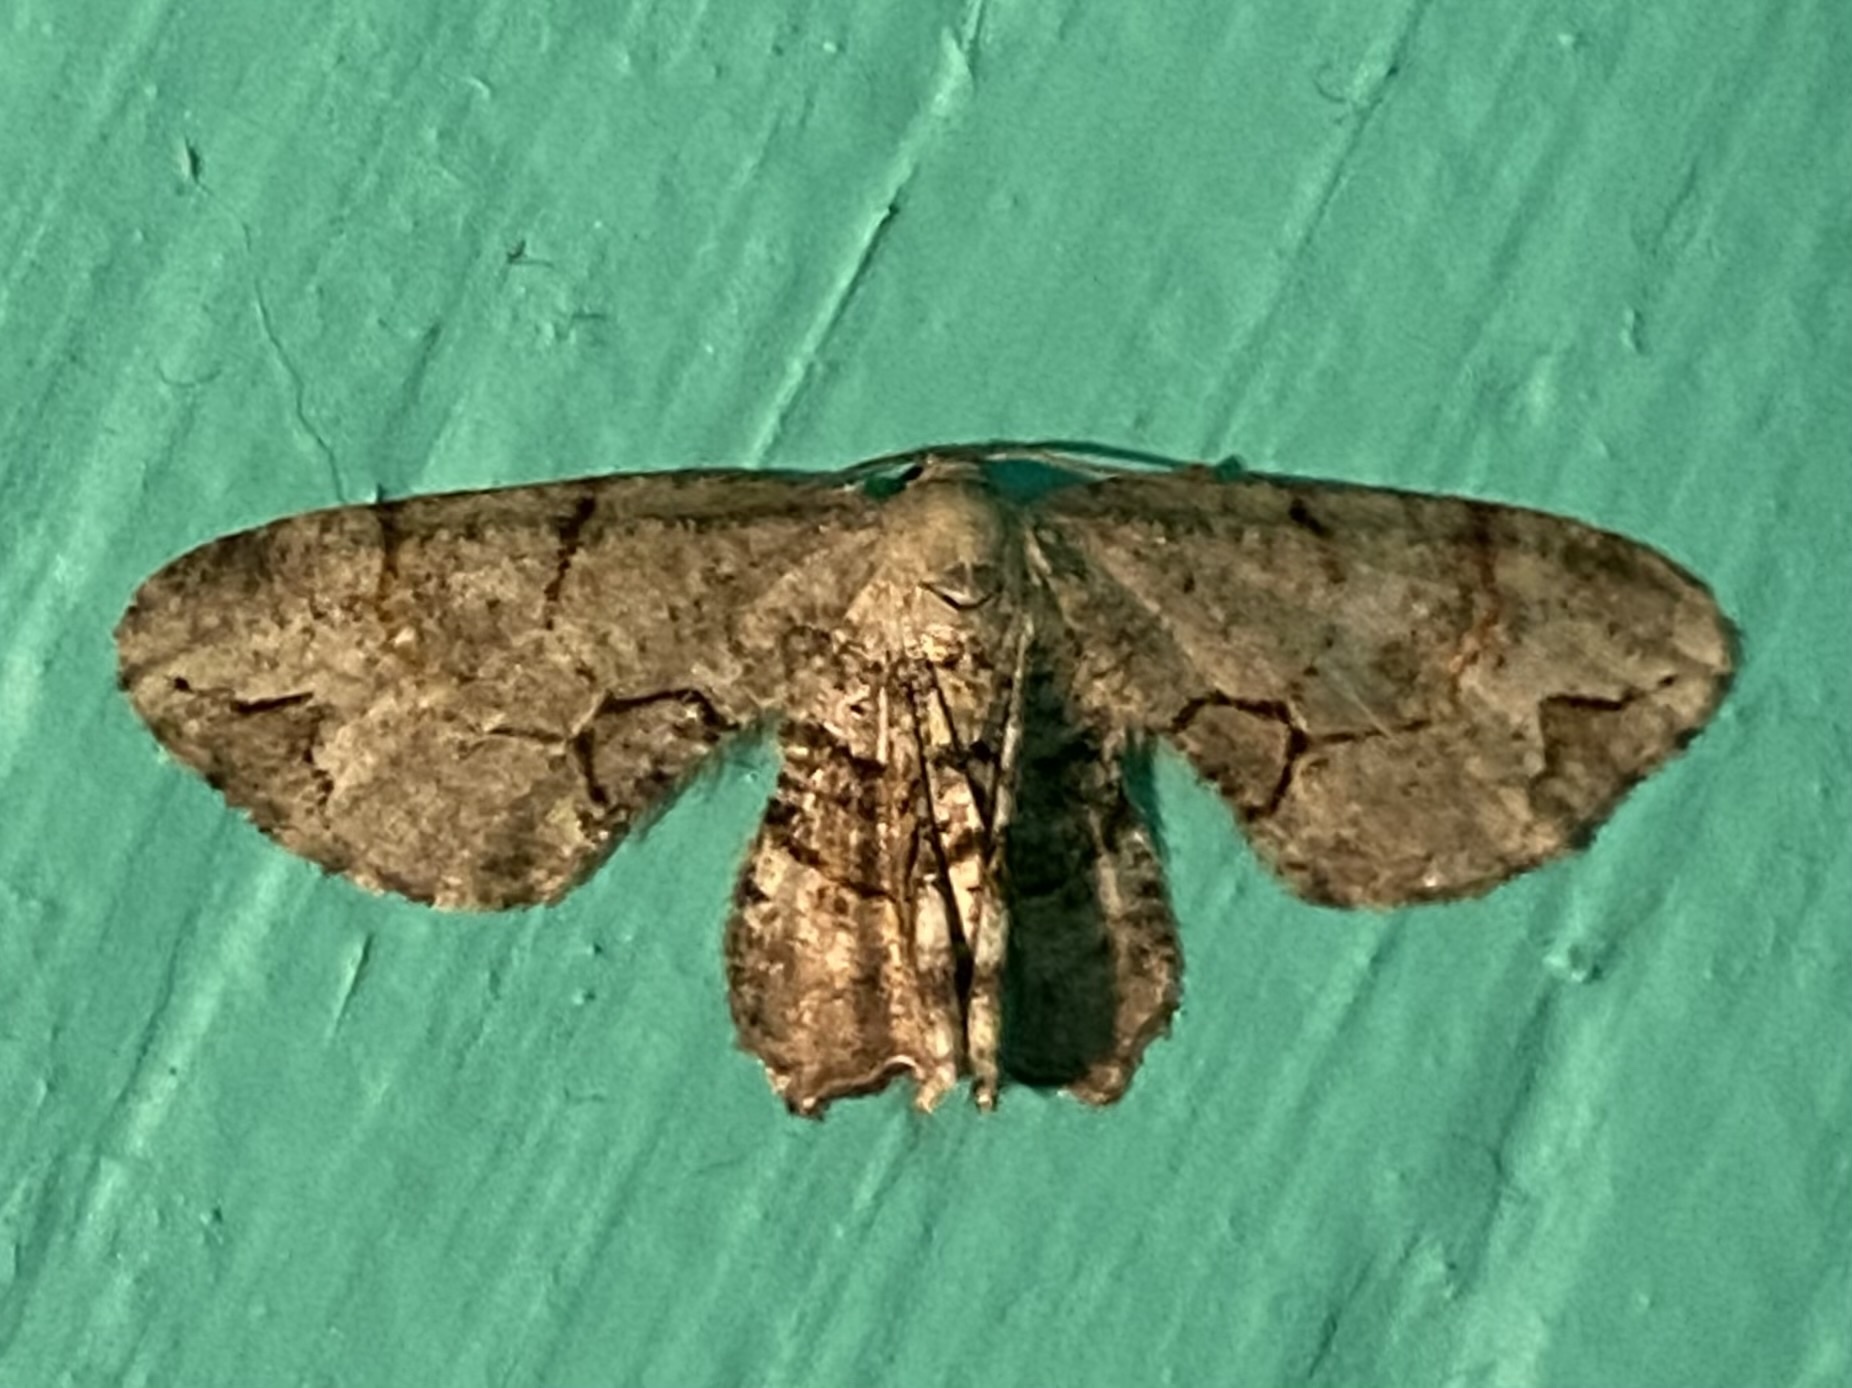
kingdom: Animalia
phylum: Arthropoda
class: Insecta
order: Lepidoptera
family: Uraniidae
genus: Epiplema
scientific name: Epiplema Callizzia amorata
